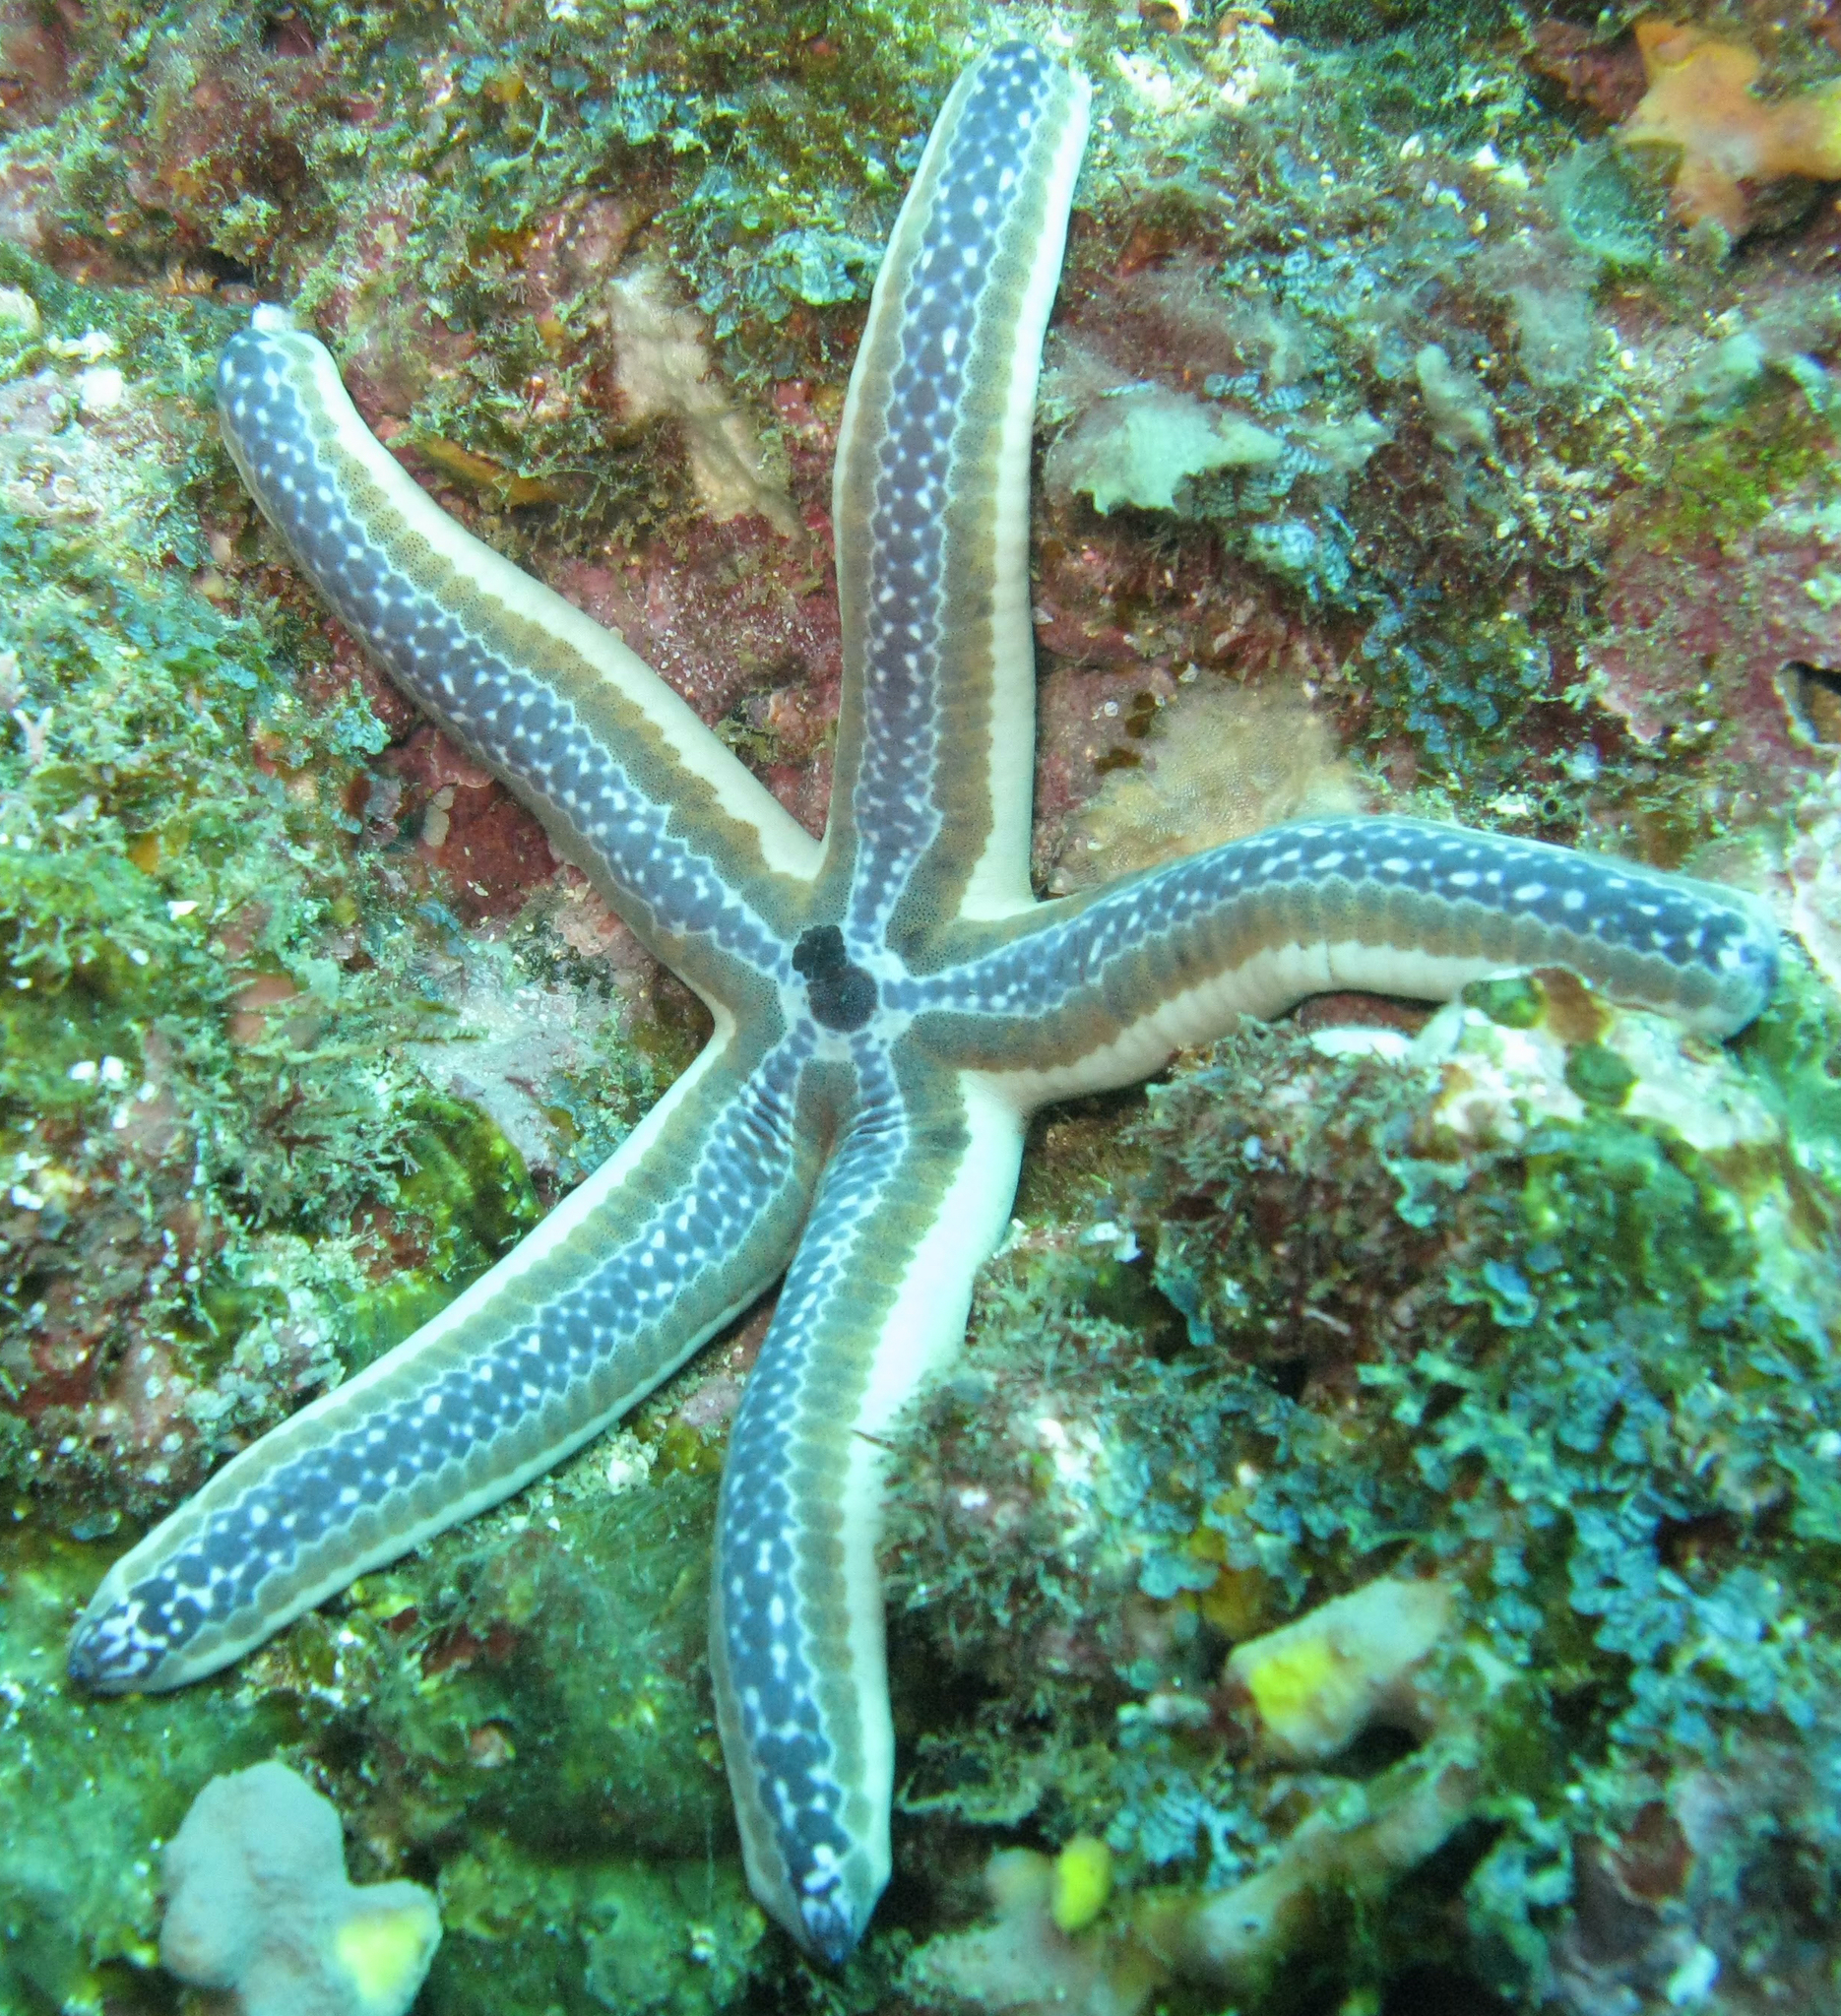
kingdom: Animalia
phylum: Echinodermata
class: Asteroidea
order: Valvatida
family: Ophidiasteridae
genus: Phataria
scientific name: Phataria unifascialis
